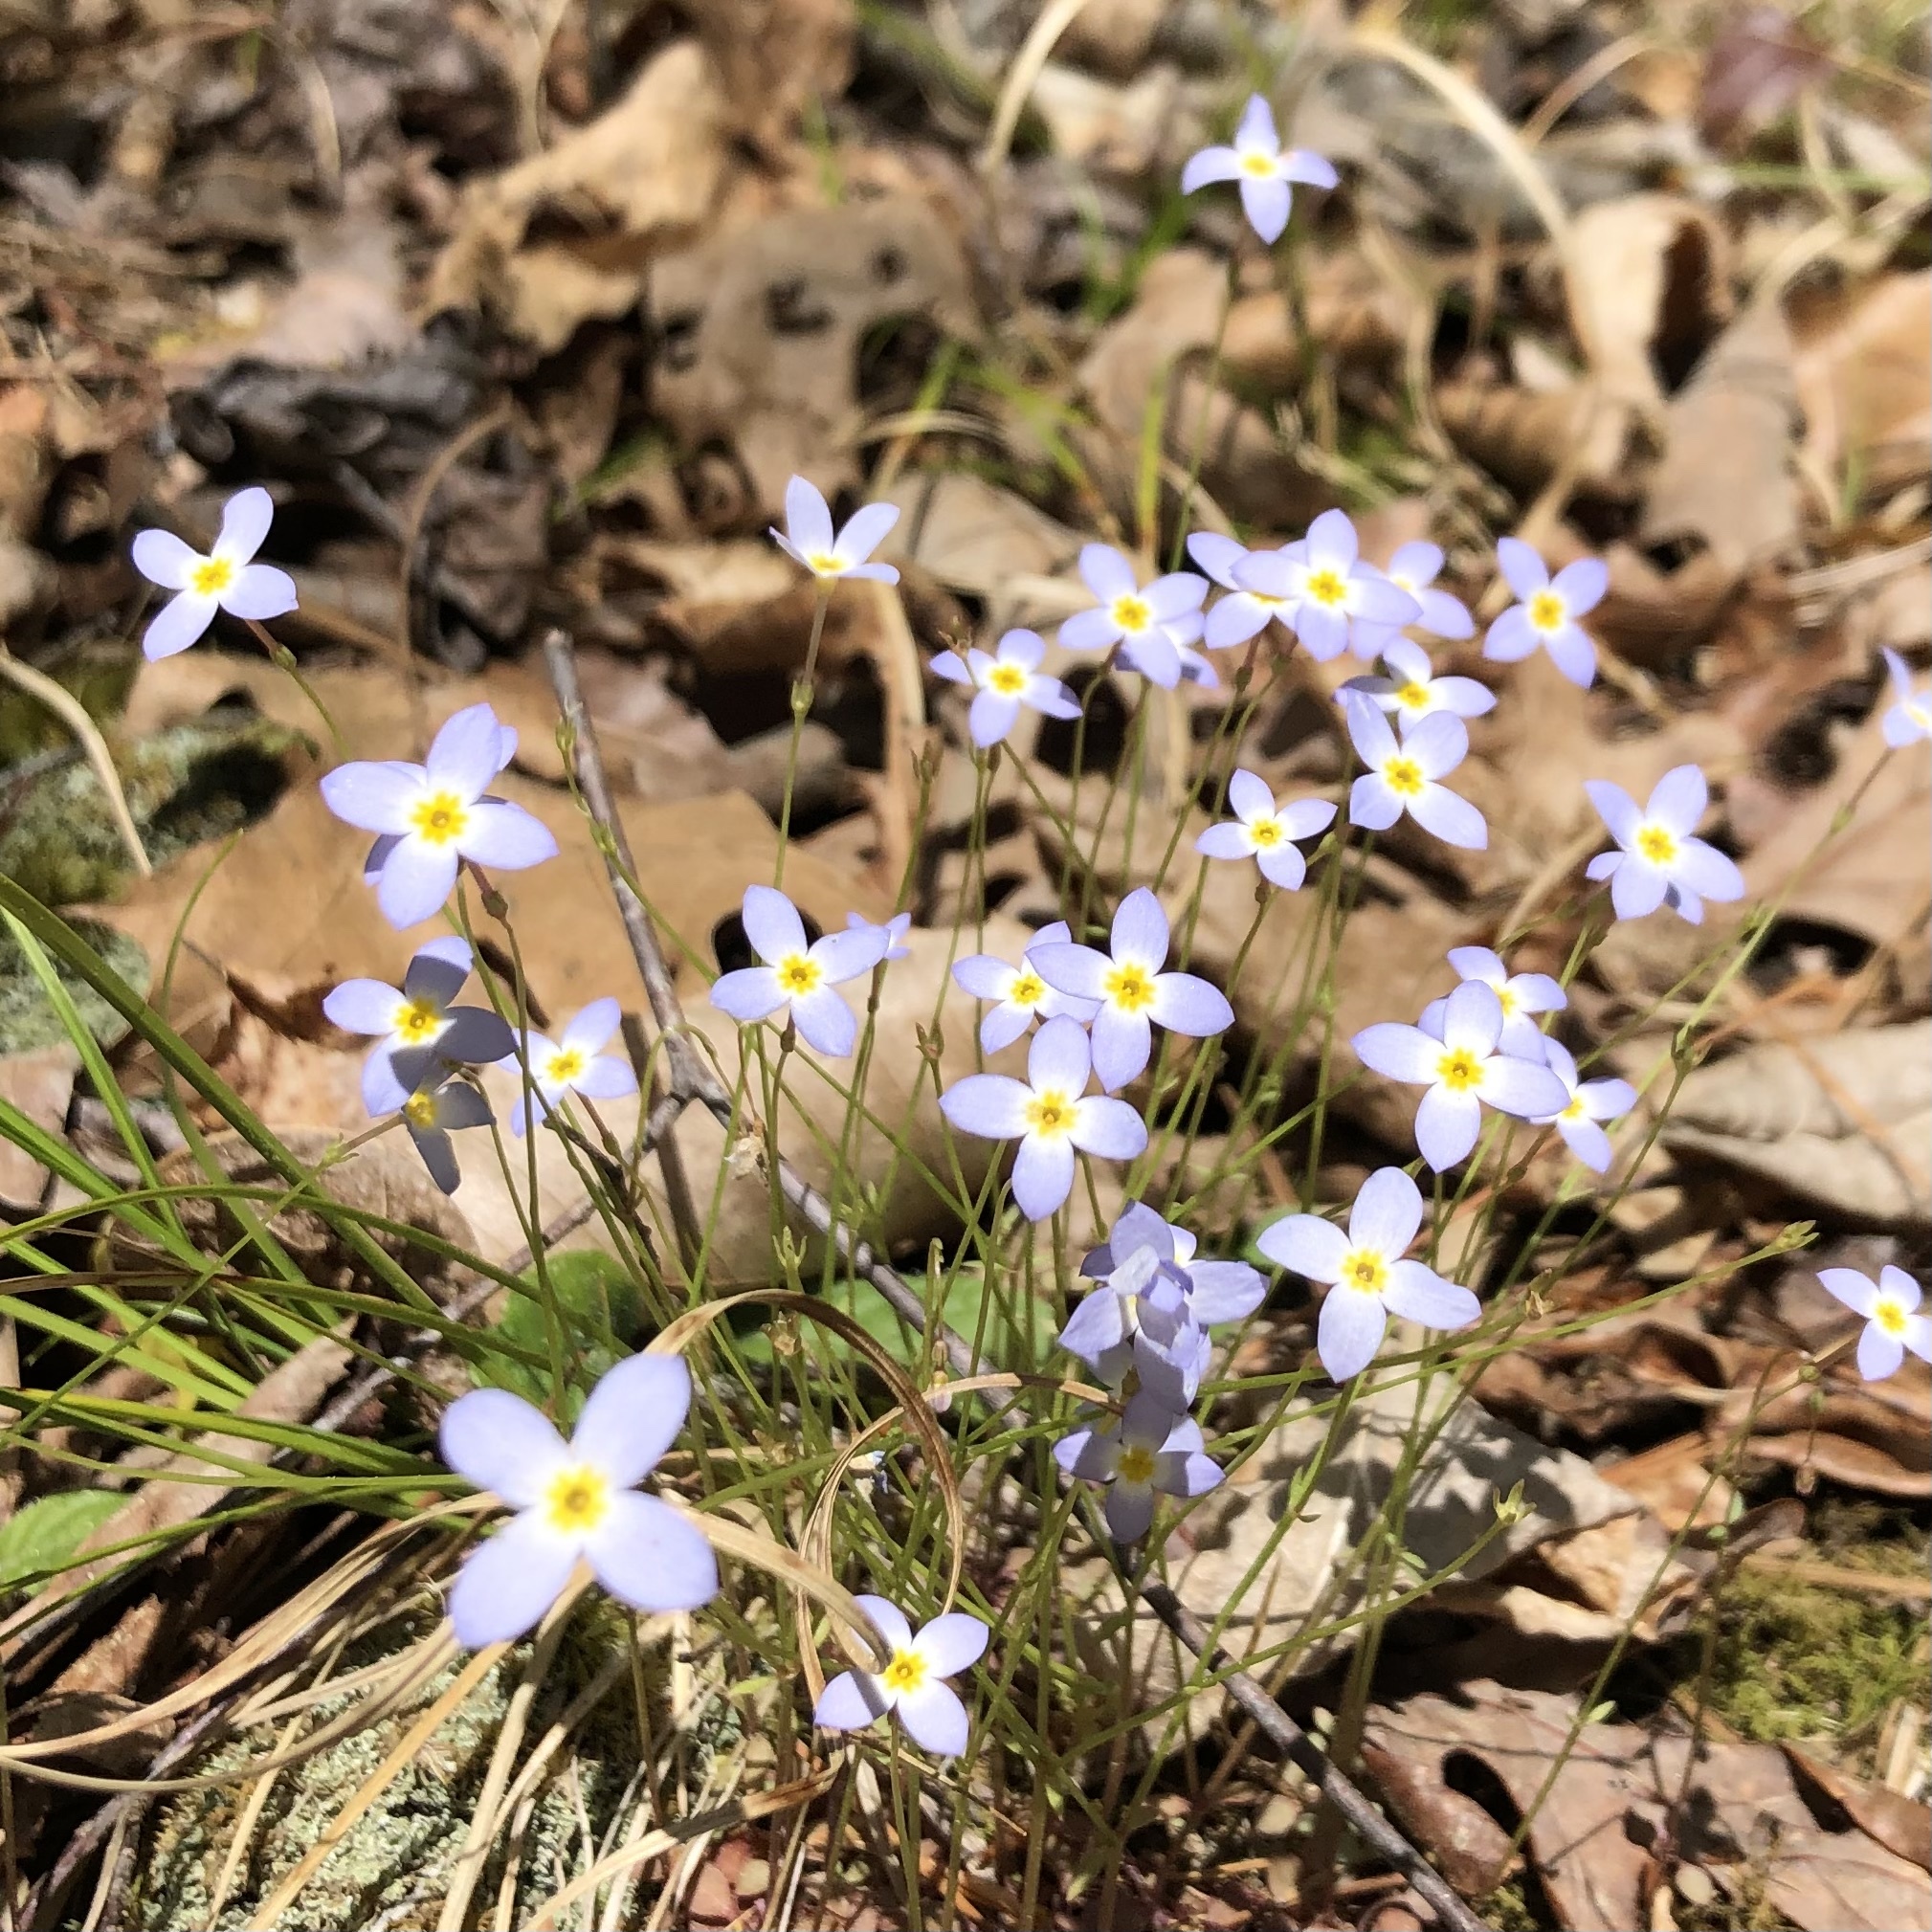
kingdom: Plantae
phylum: Tracheophyta
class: Magnoliopsida
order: Gentianales
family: Rubiaceae
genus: Houstonia
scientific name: Houstonia caerulea
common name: Bluets
